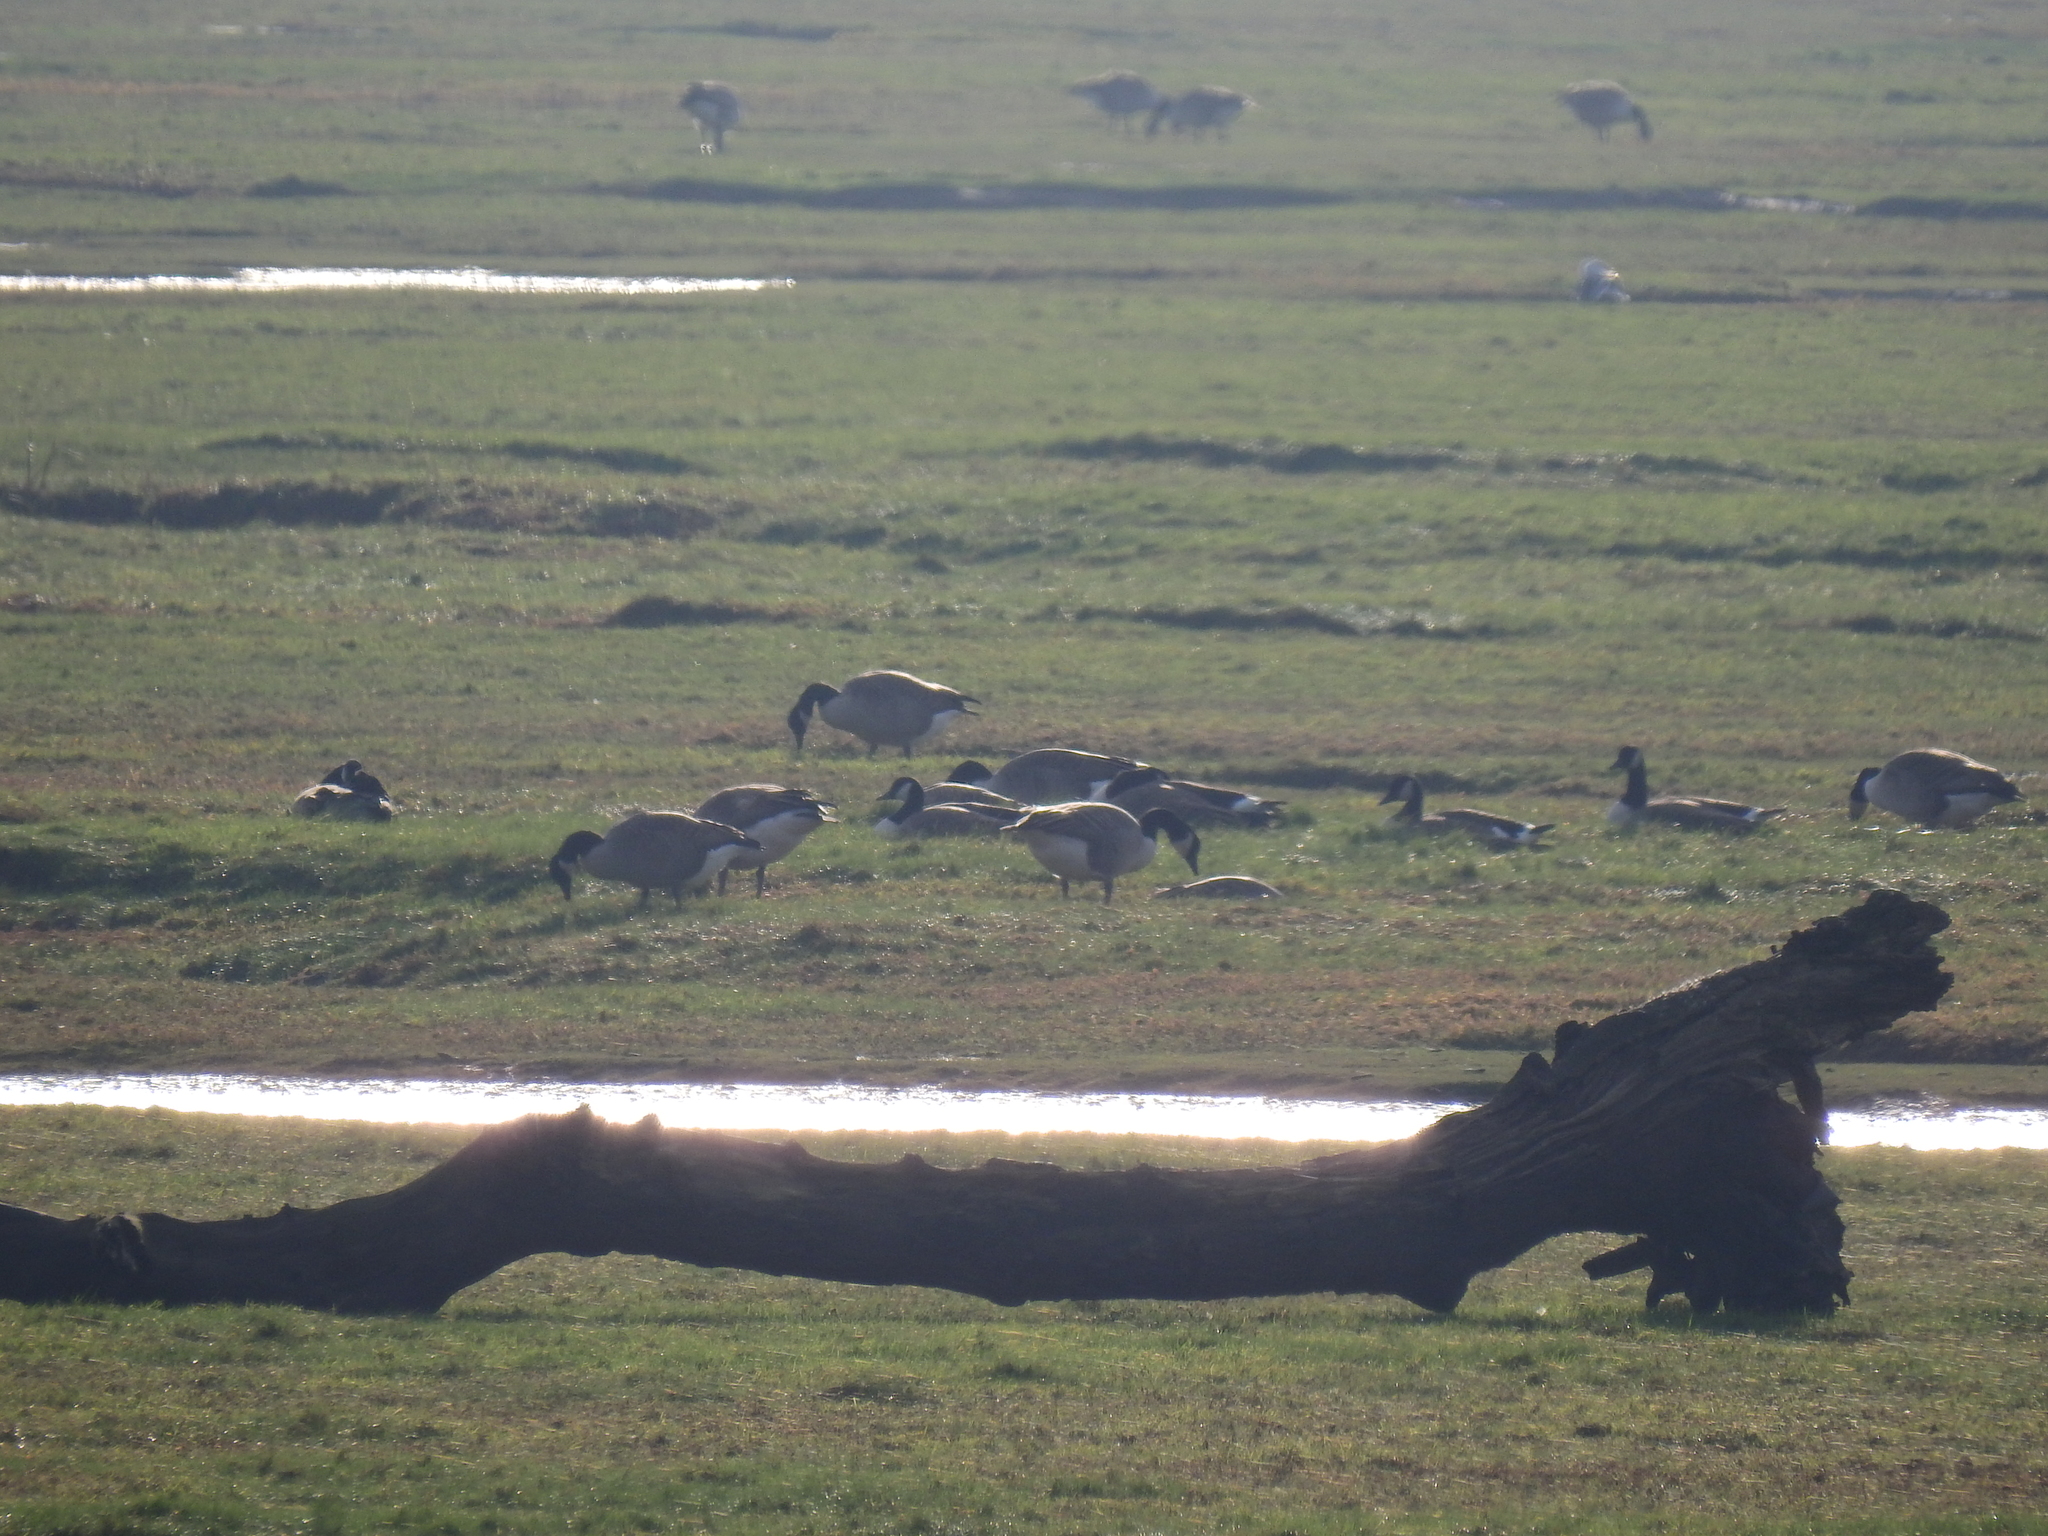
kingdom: Animalia
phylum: Chordata
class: Aves
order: Anseriformes
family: Anatidae
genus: Branta
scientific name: Branta canadensis
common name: Canada goose
